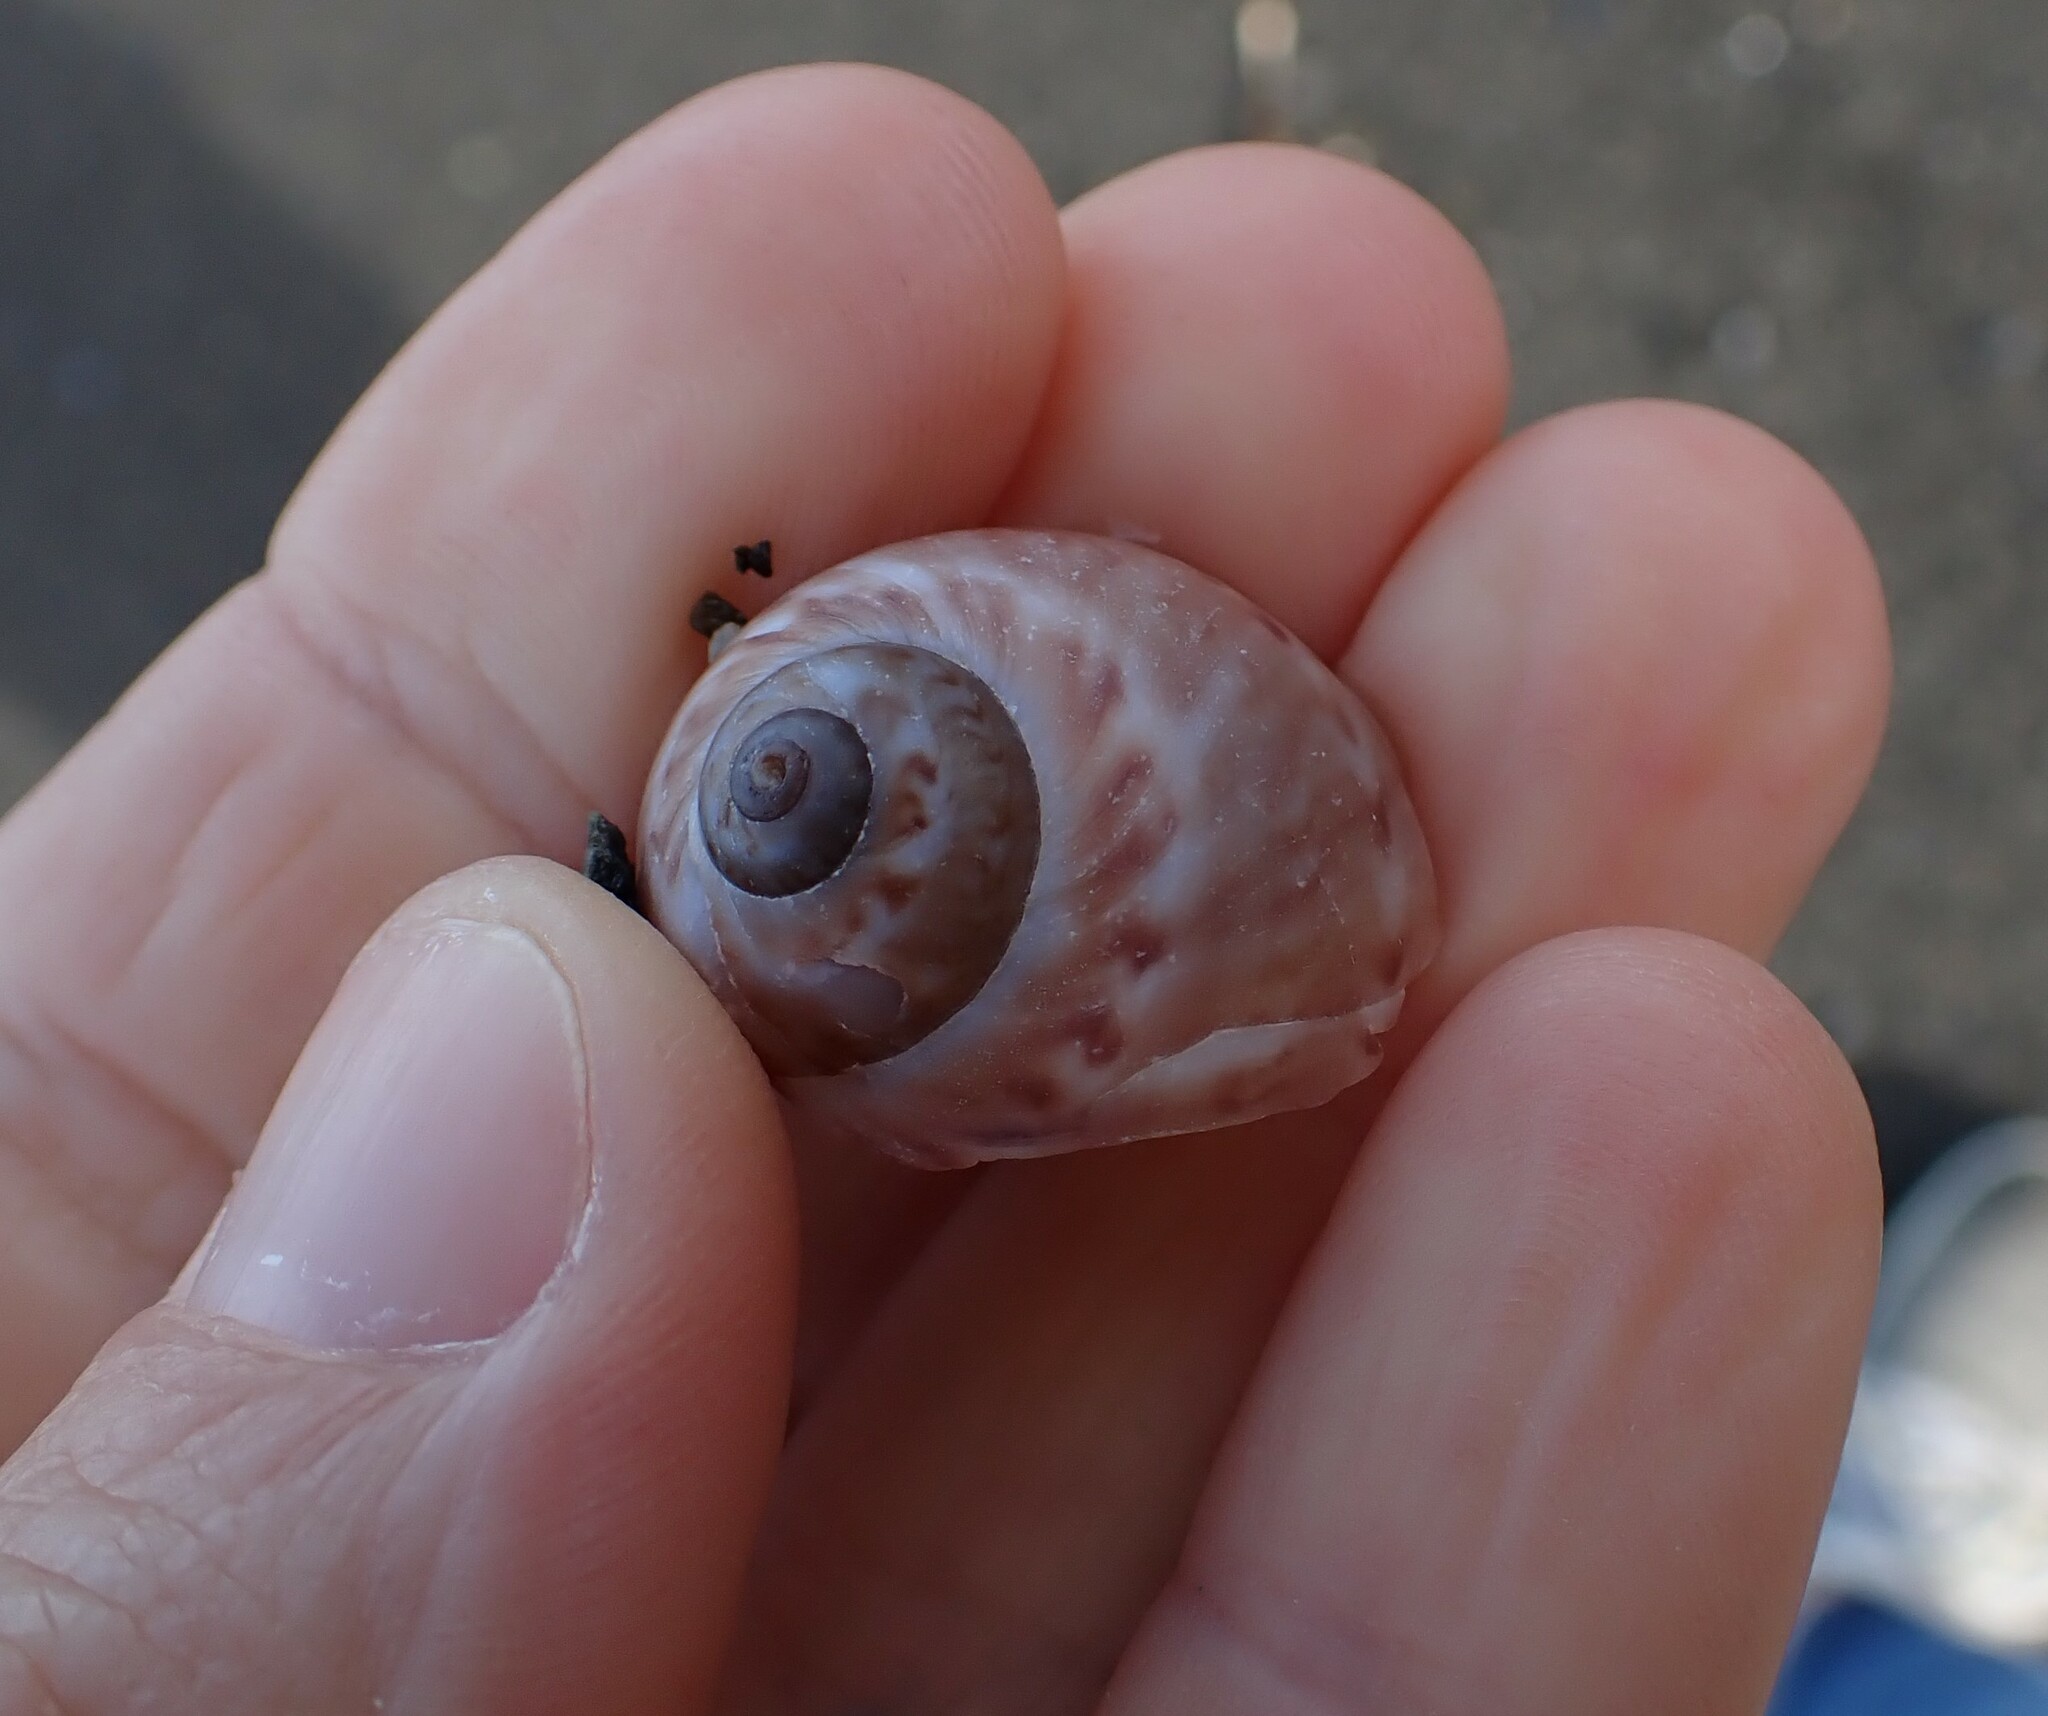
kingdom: Animalia
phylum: Mollusca
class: Gastropoda
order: Littorinimorpha
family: Naticidae
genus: Tanea
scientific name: Tanea zelandica
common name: New zealand moonsnail
